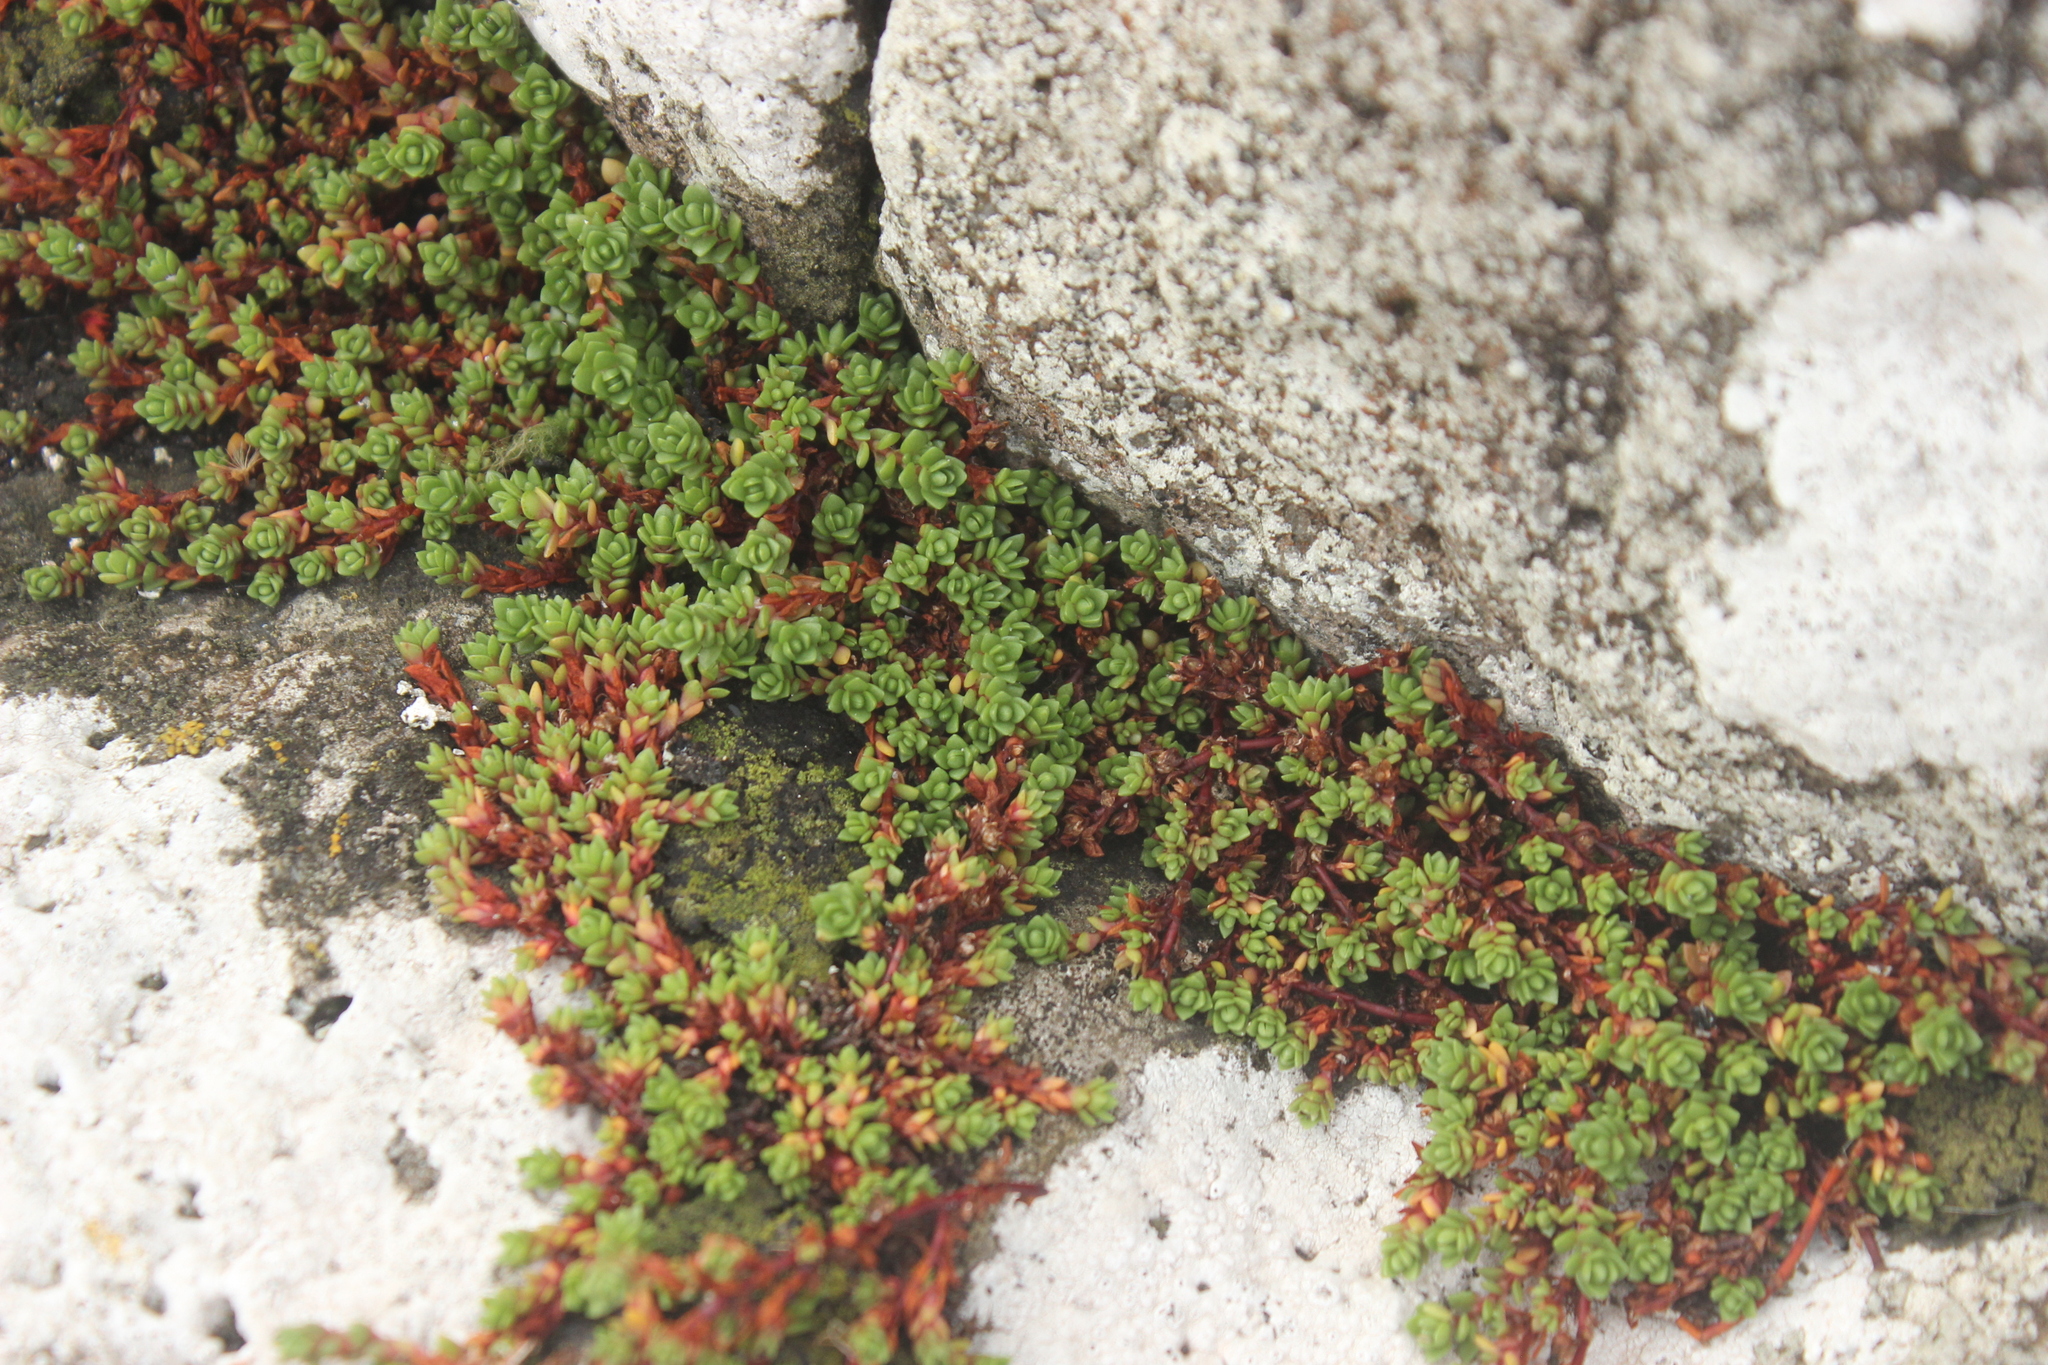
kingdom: Plantae
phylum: Tracheophyta
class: Magnoliopsida
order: Saxifragales
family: Crassulaceae
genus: Crassula
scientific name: Crassula moschata
